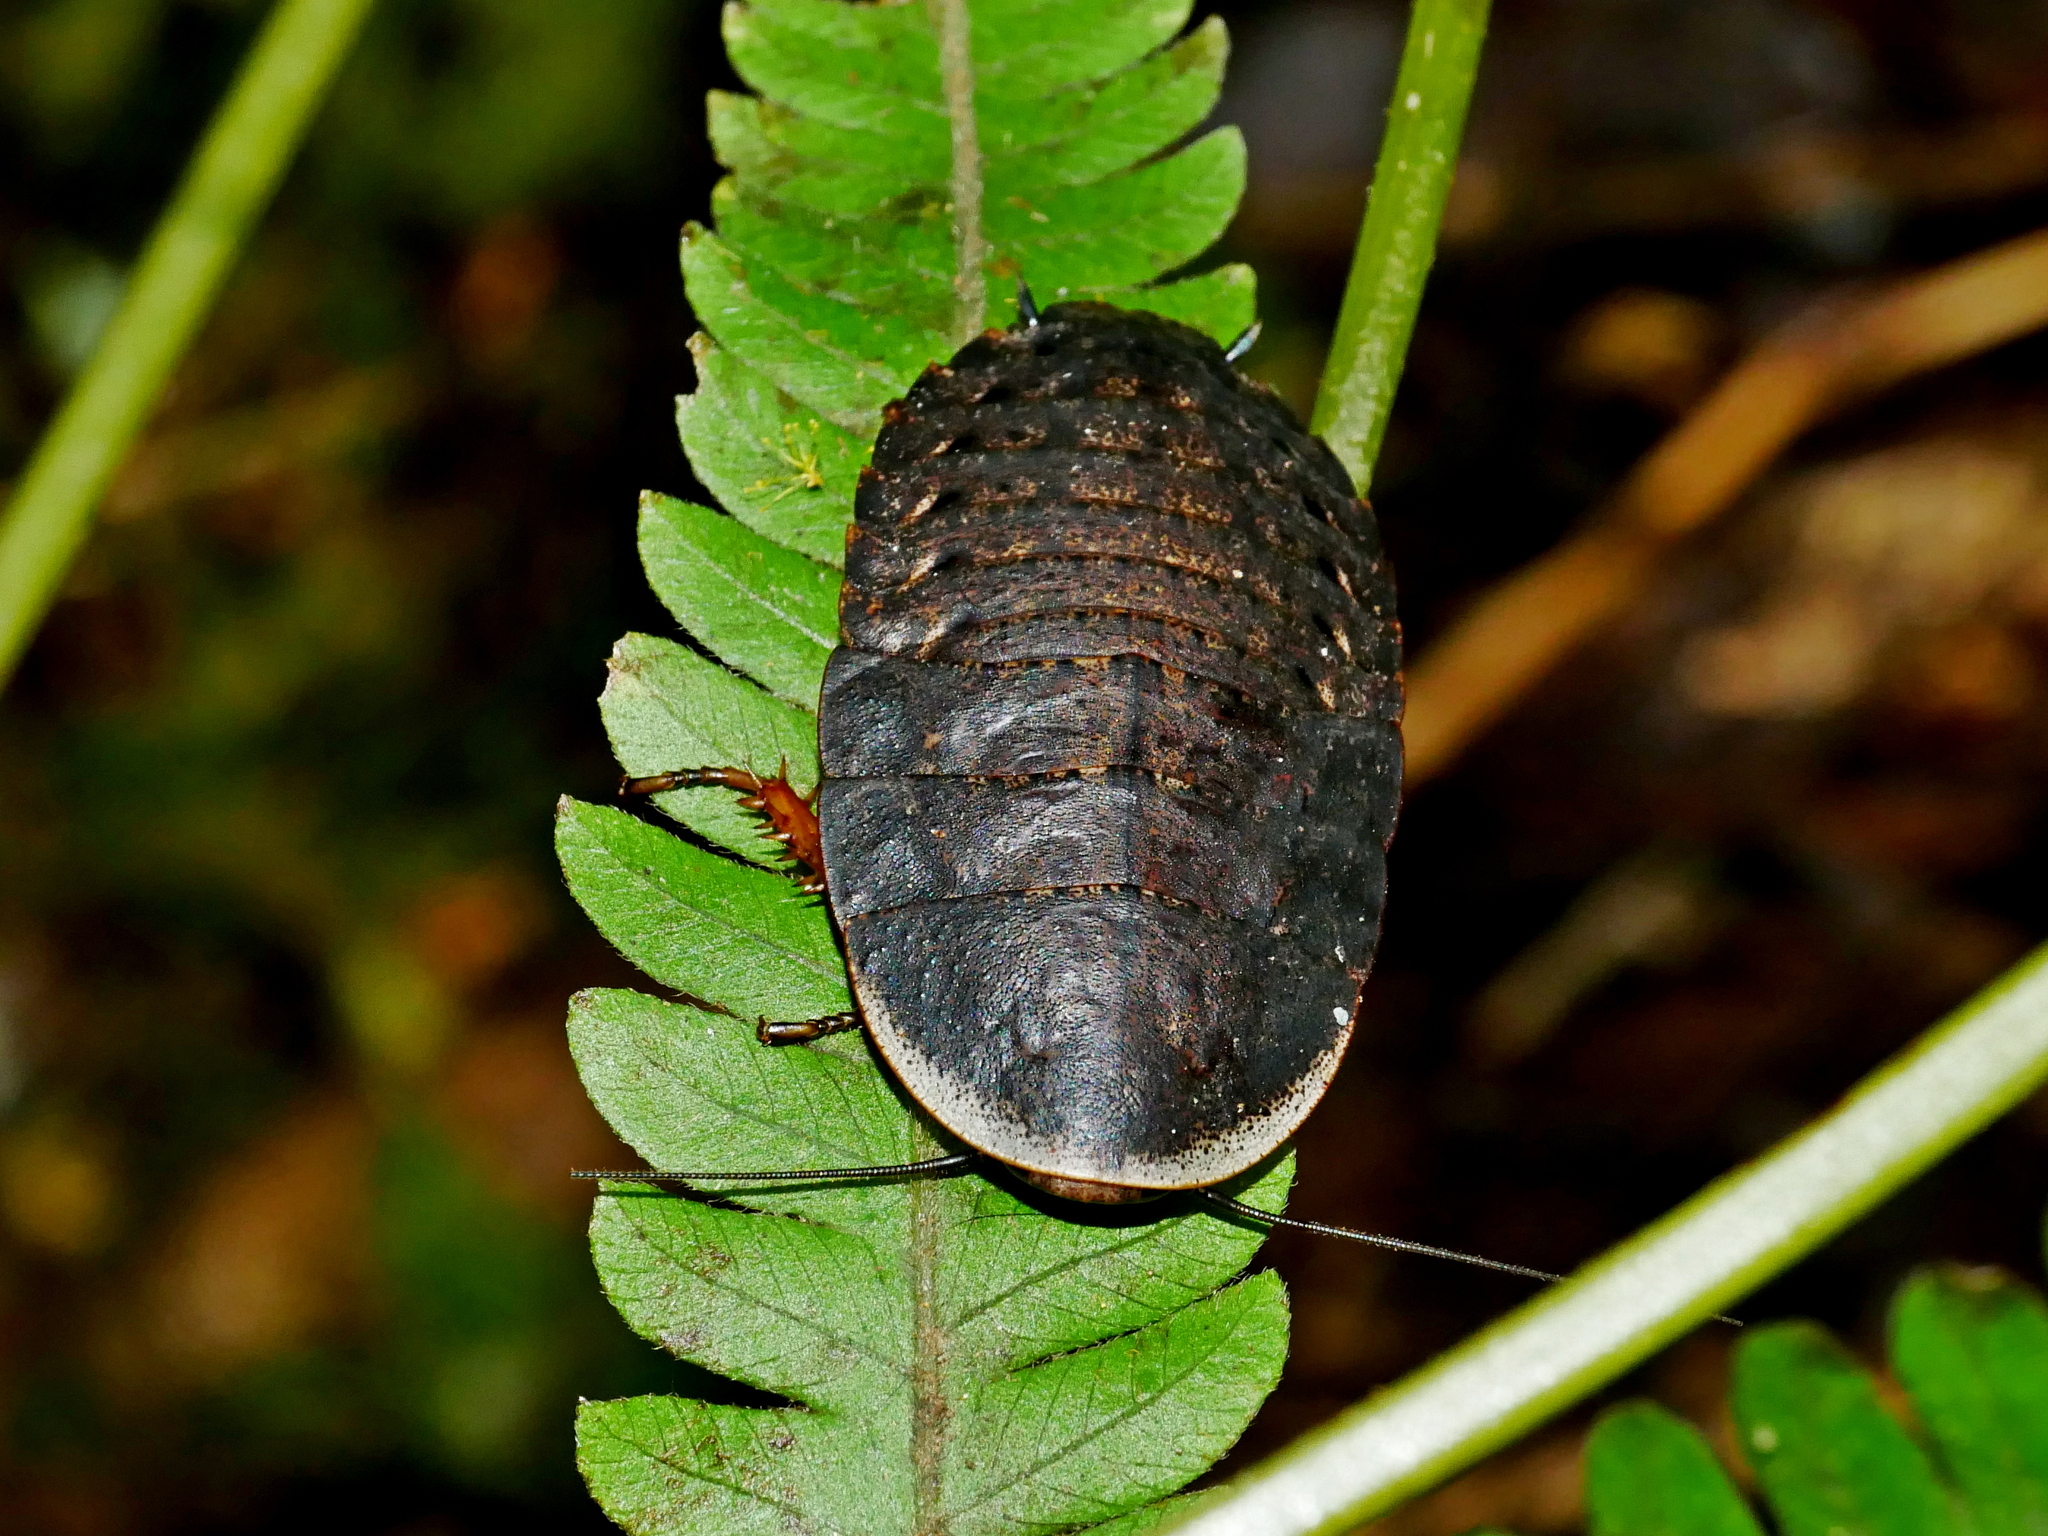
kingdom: Animalia
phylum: Arthropoda
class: Insecta
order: Blattodea
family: Blaberidae
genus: Opisthoplatia
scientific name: Opisthoplatia orientalis
